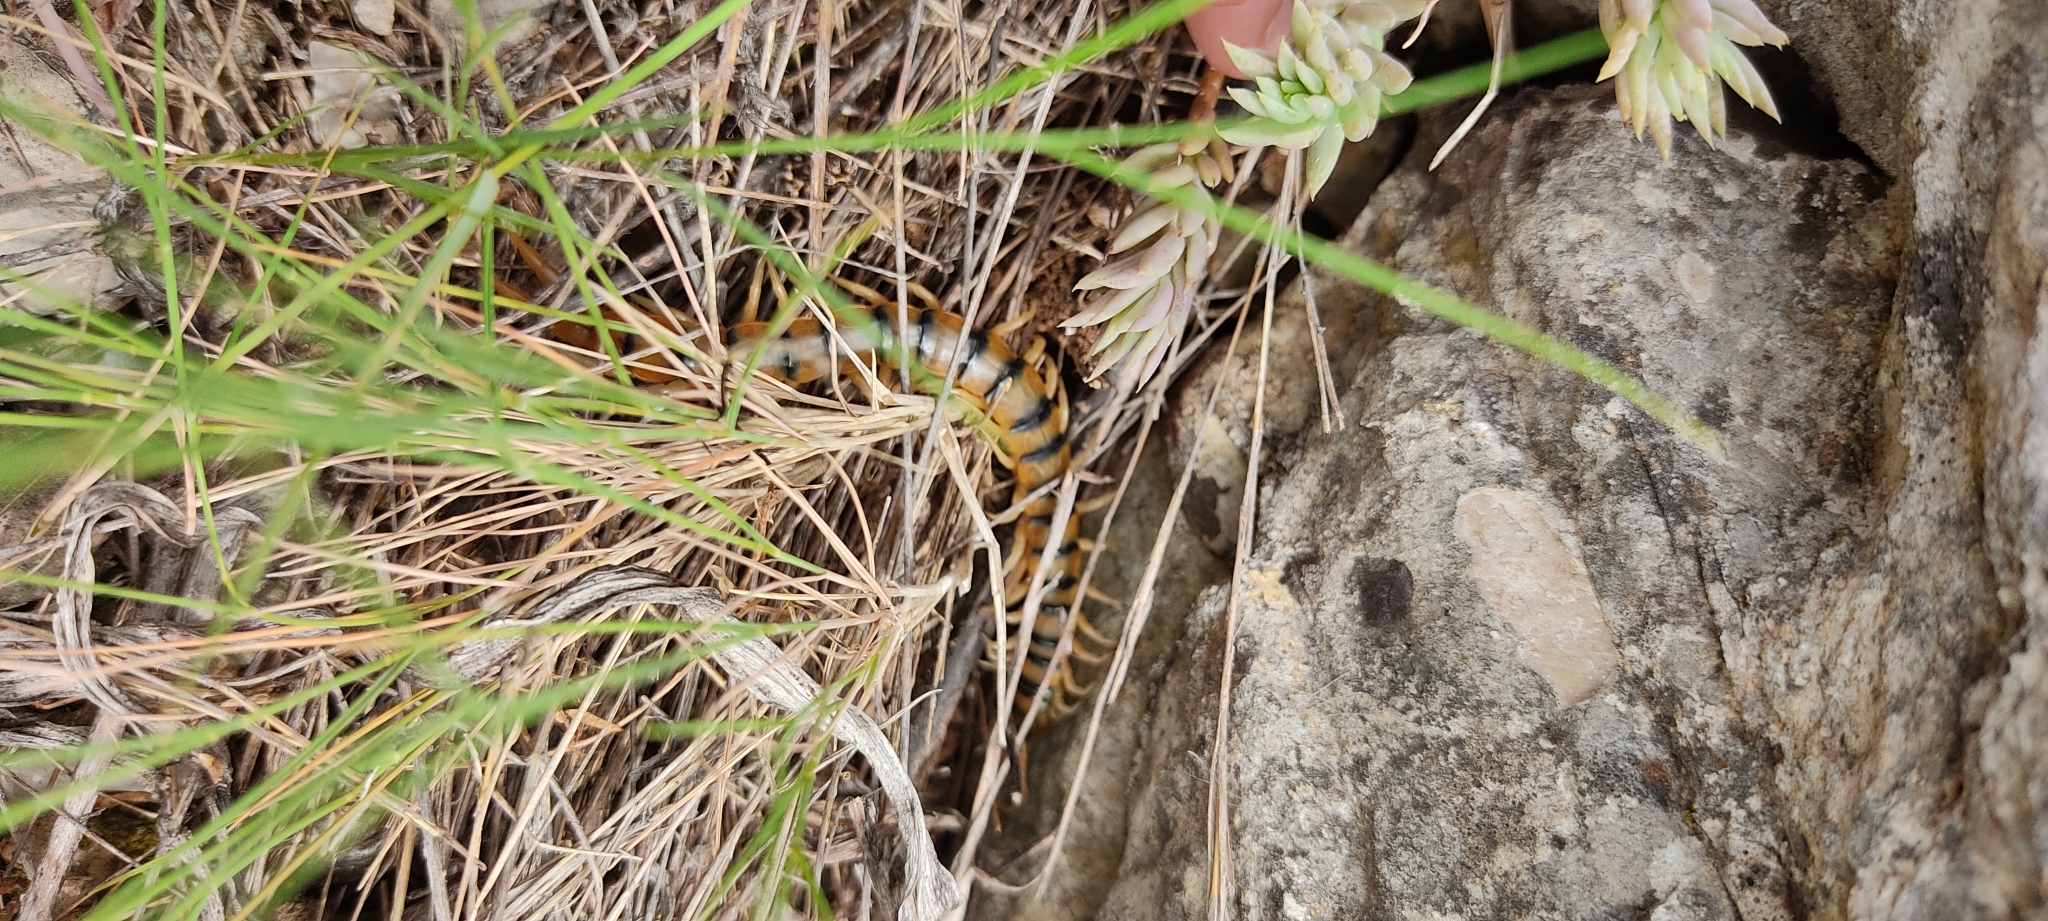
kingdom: Animalia
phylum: Arthropoda
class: Chilopoda
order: Scolopendromorpha
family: Scolopendridae
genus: Scolopendra
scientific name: Scolopendra cingulata
